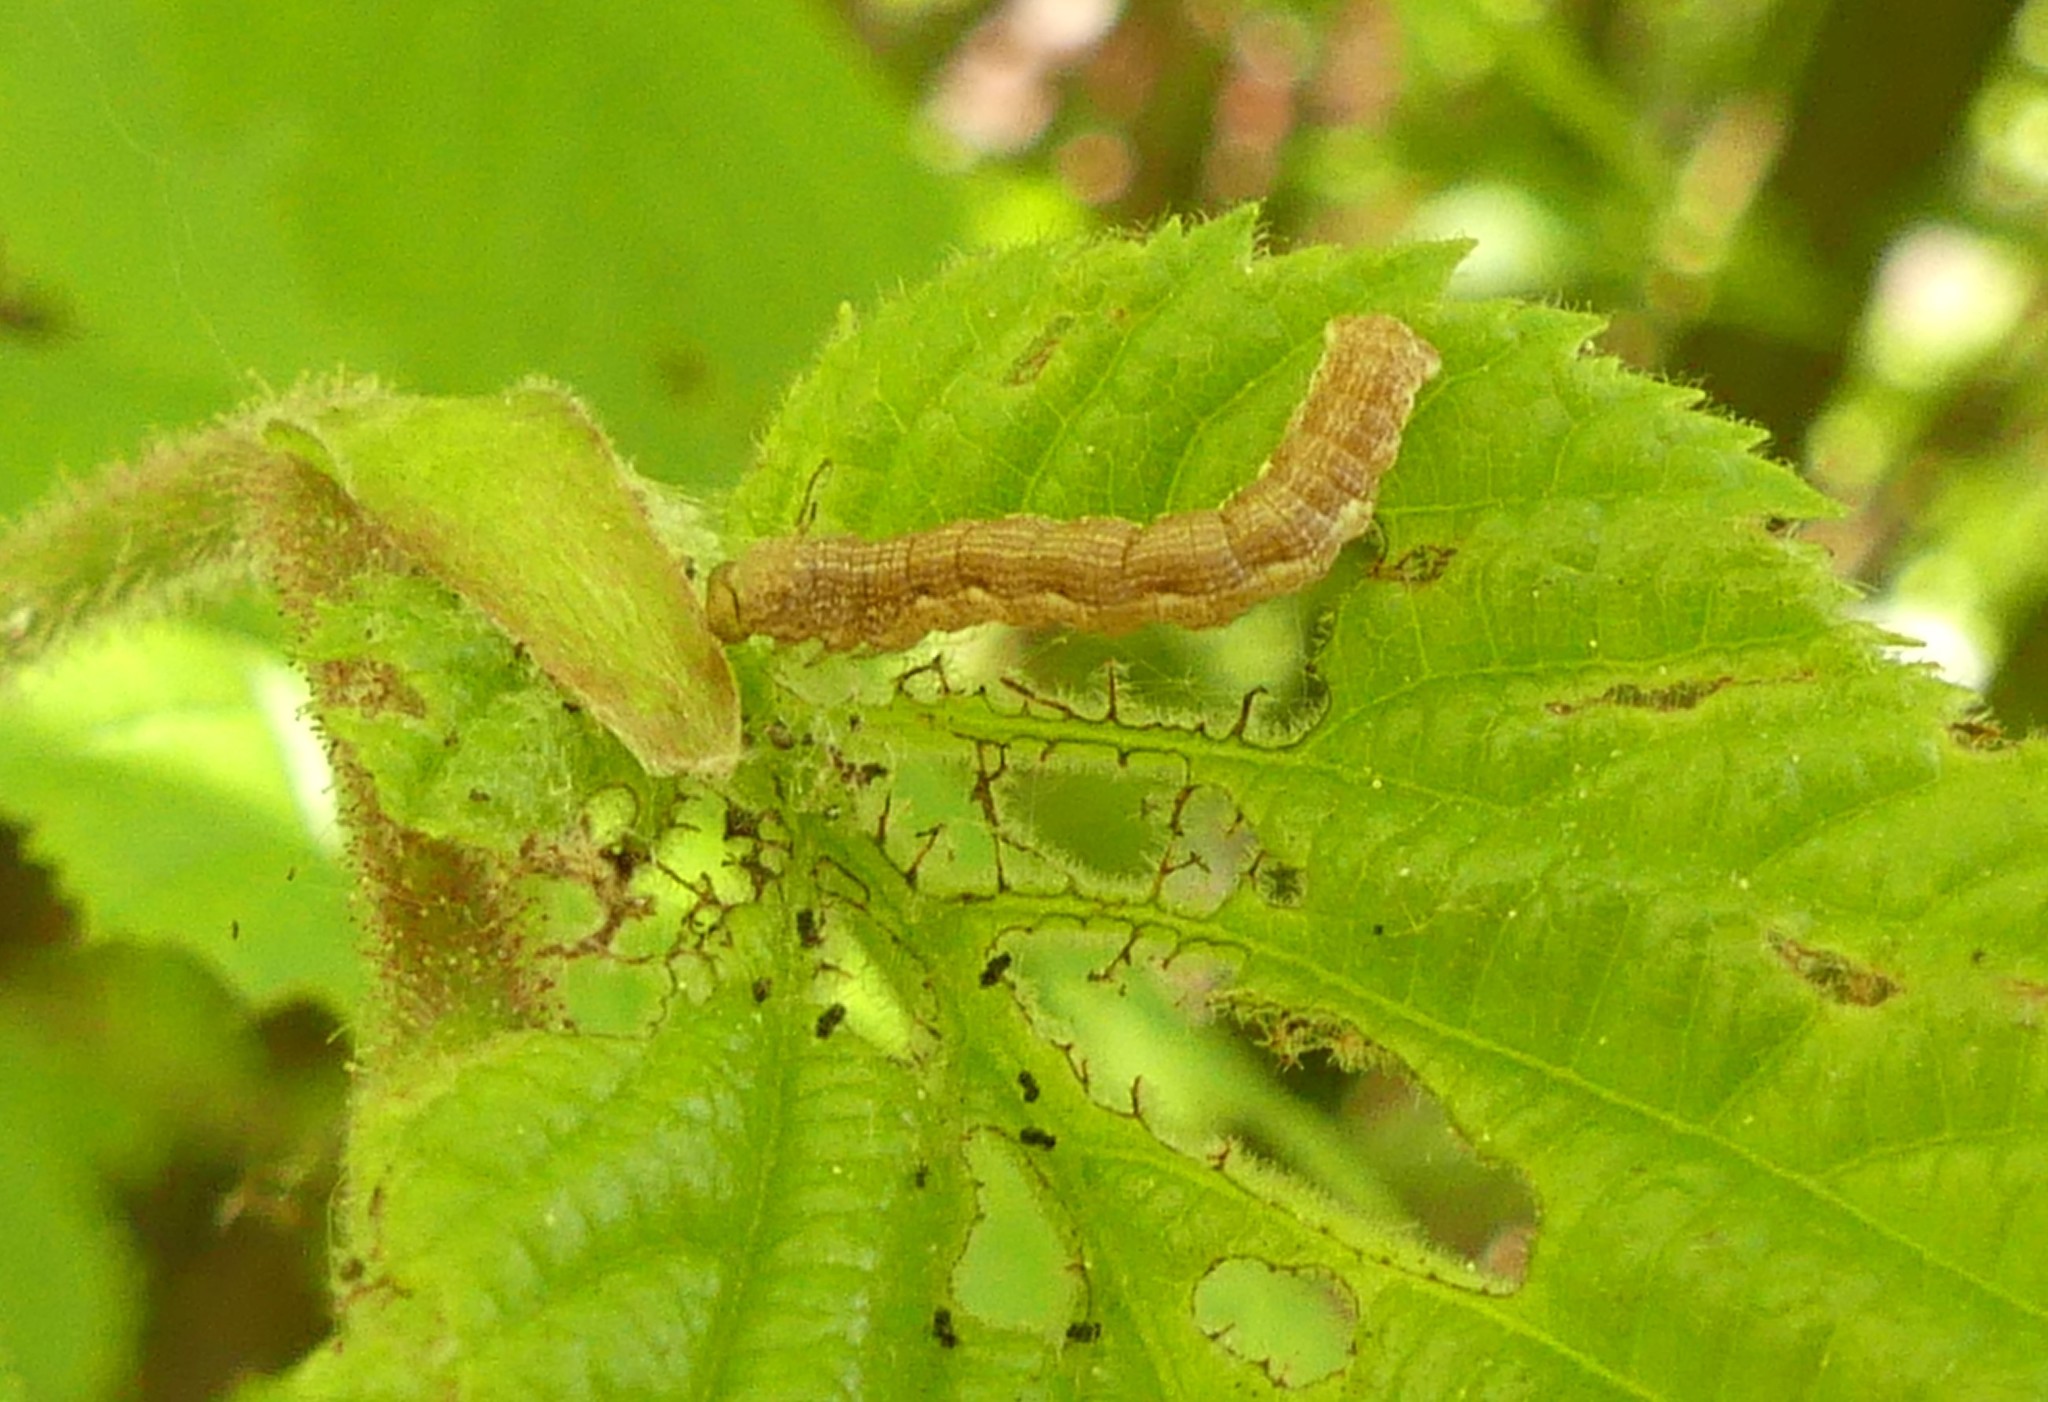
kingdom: Animalia
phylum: Arthropoda
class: Insecta
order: Lepidoptera
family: Geometridae
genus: Erannis
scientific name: Erannis defoliaria
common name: Mottled umber
